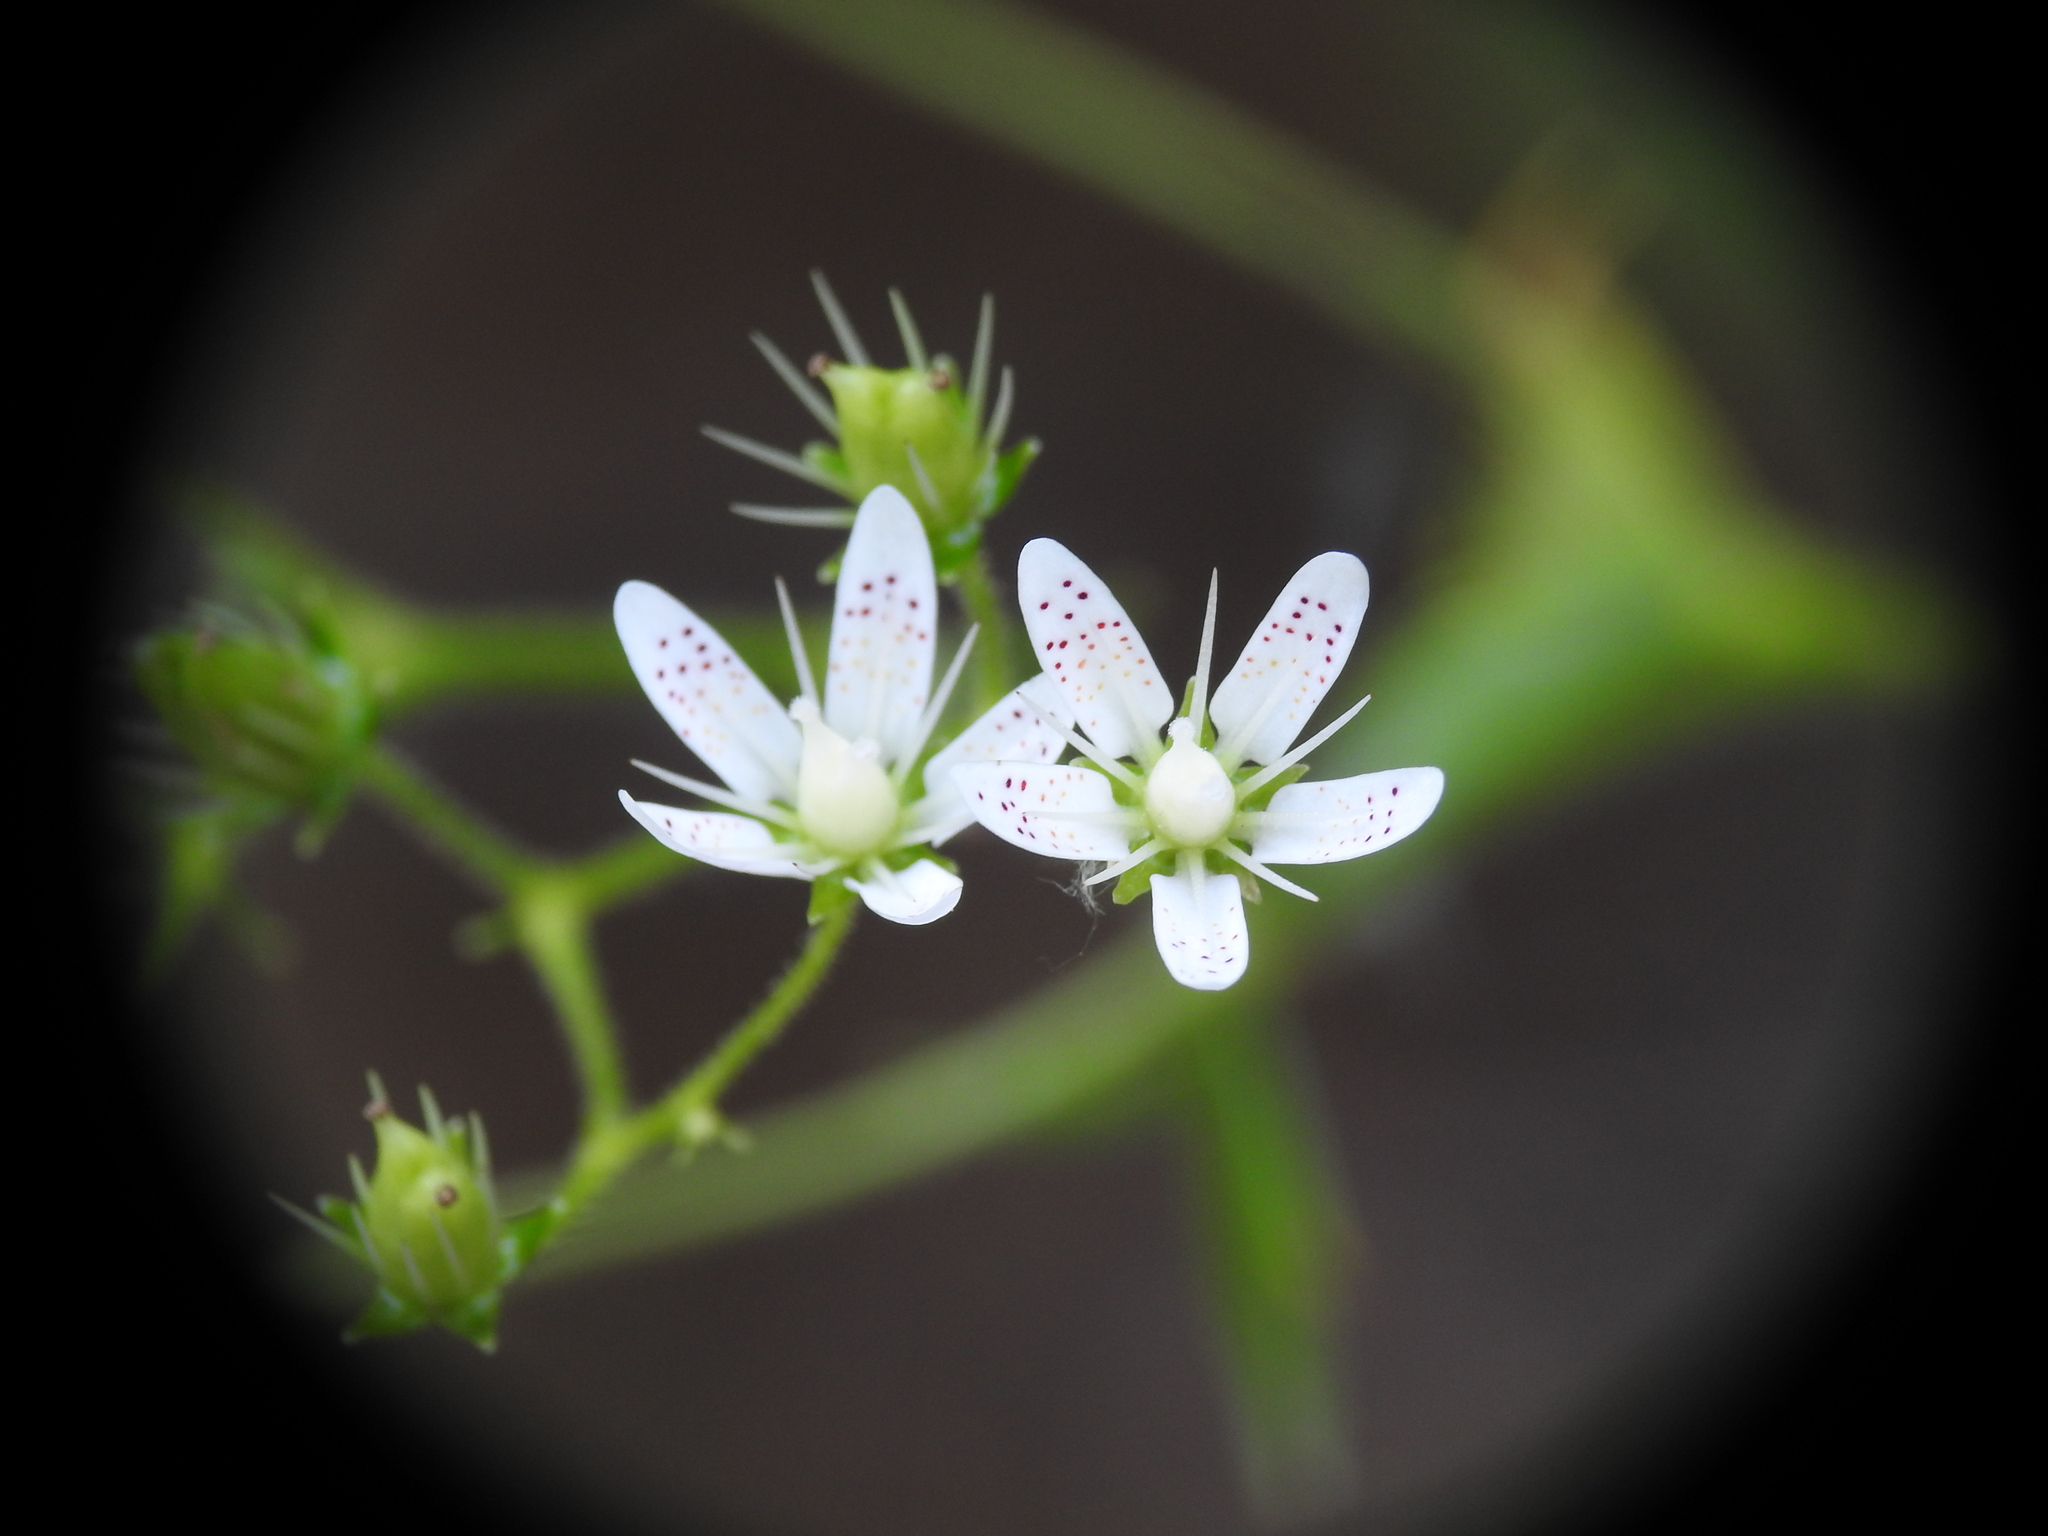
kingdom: Plantae
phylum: Tracheophyta
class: Magnoliopsida
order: Saxifragales
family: Saxifragaceae
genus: Saxifraga
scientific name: Saxifraga rotundifolia
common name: Round-leaved saxifrage
